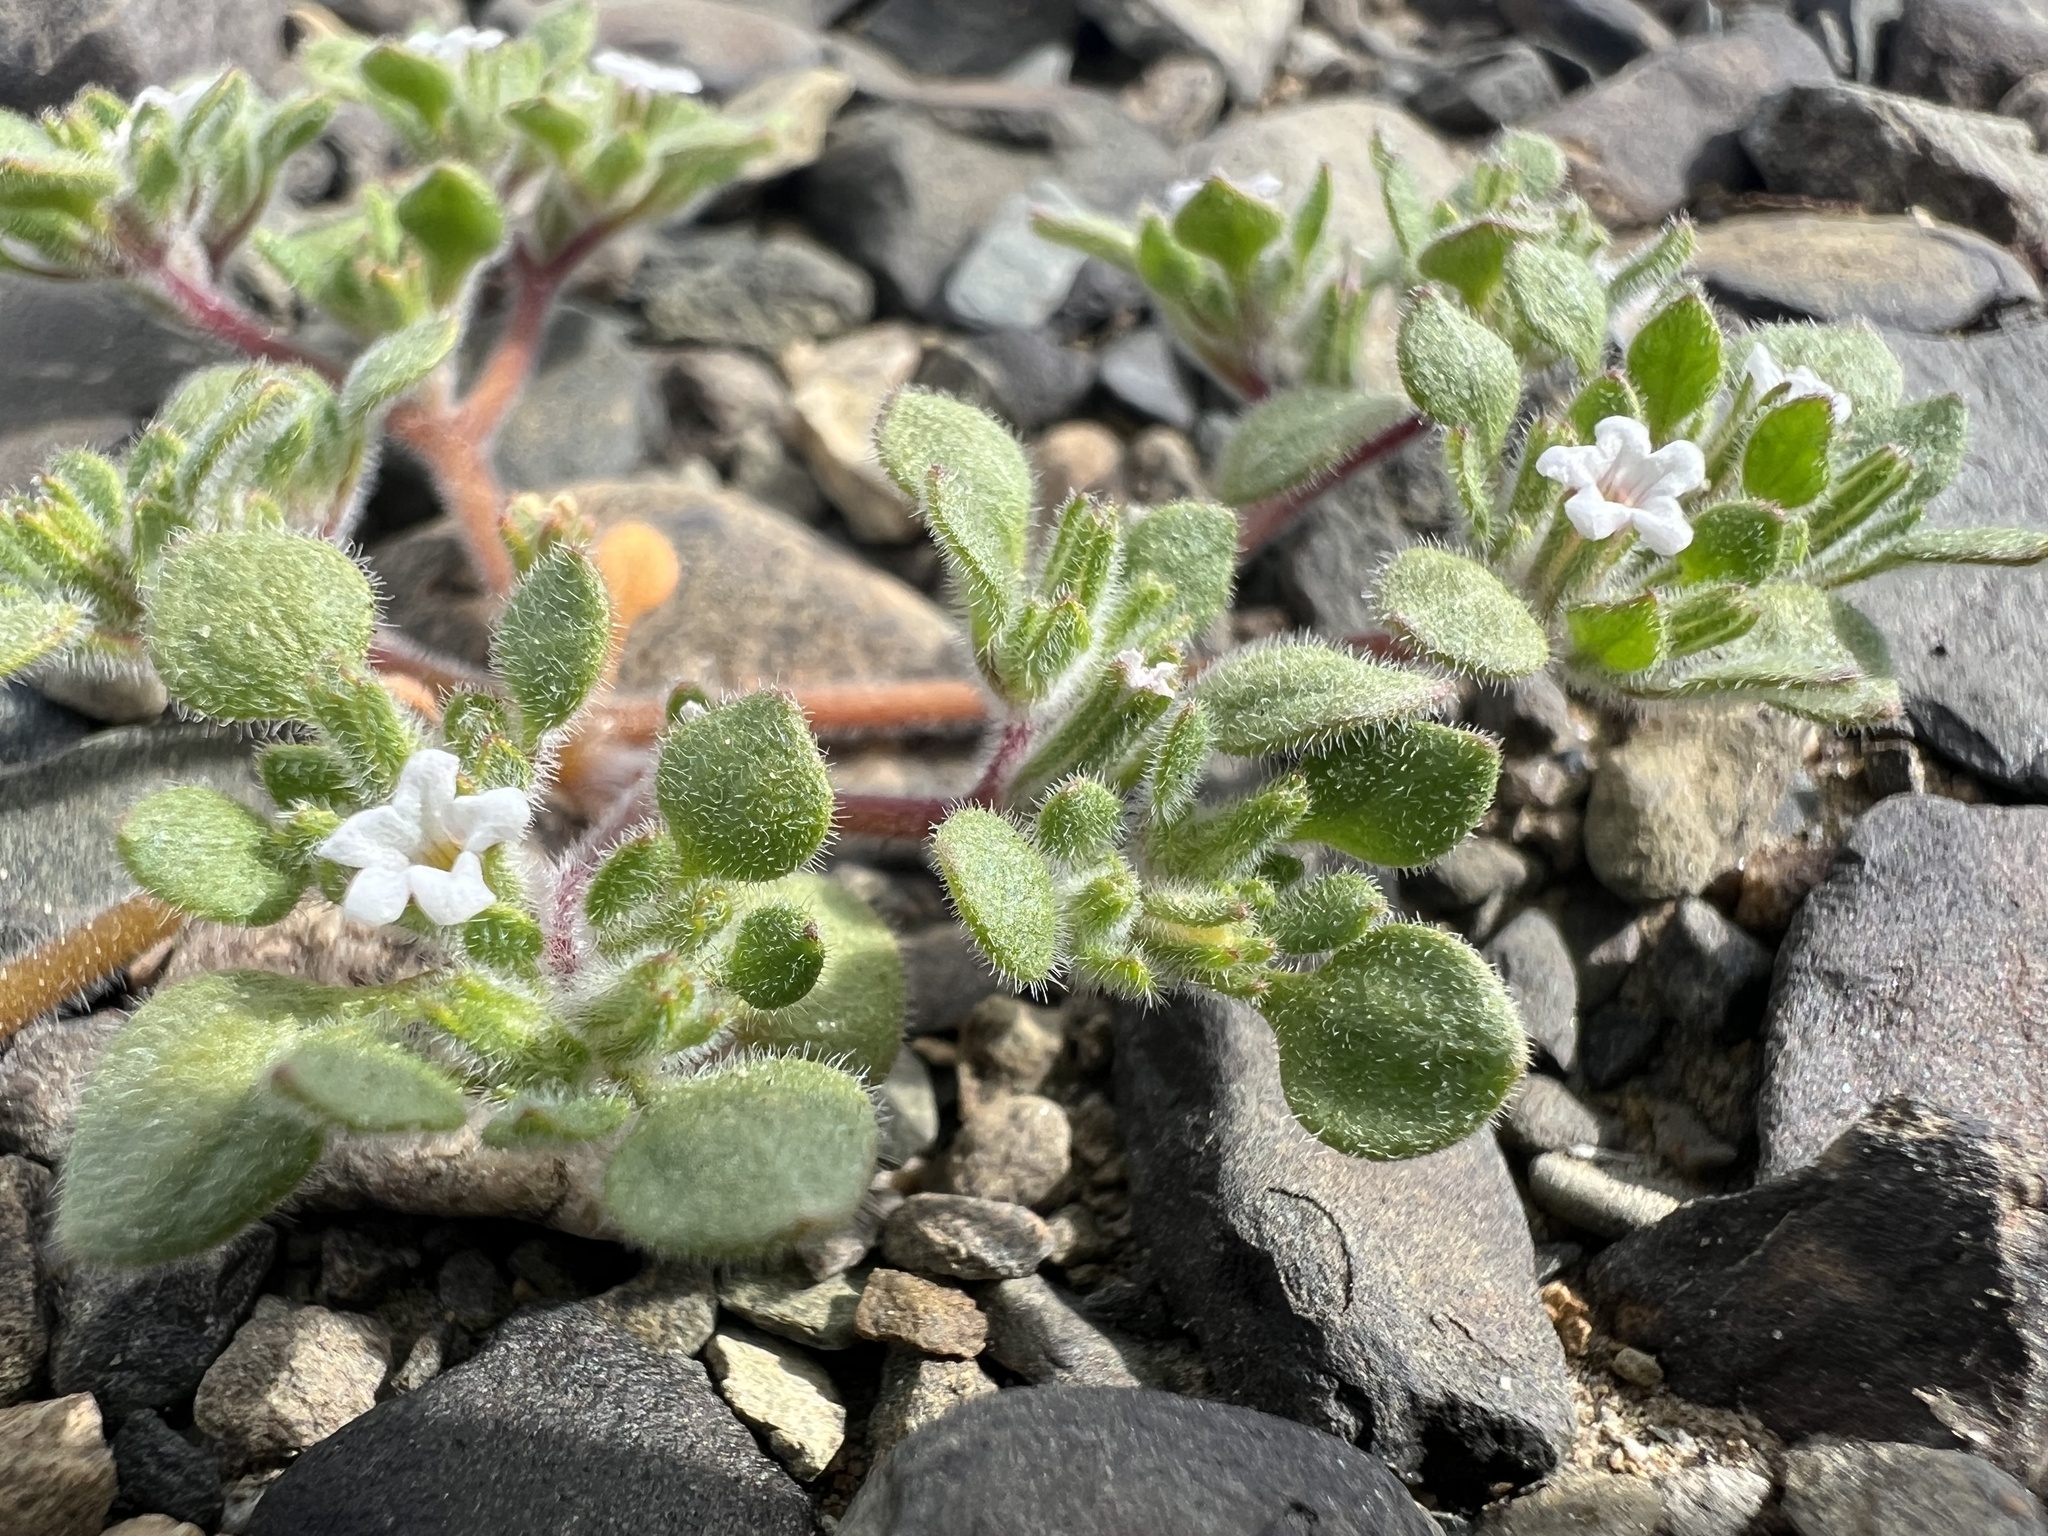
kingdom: Plantae
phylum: Tracheophyta
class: Magnoliopsida
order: Boraginales
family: Namaceae
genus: Nama
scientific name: Nama pusilla
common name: Eggleaf nama
